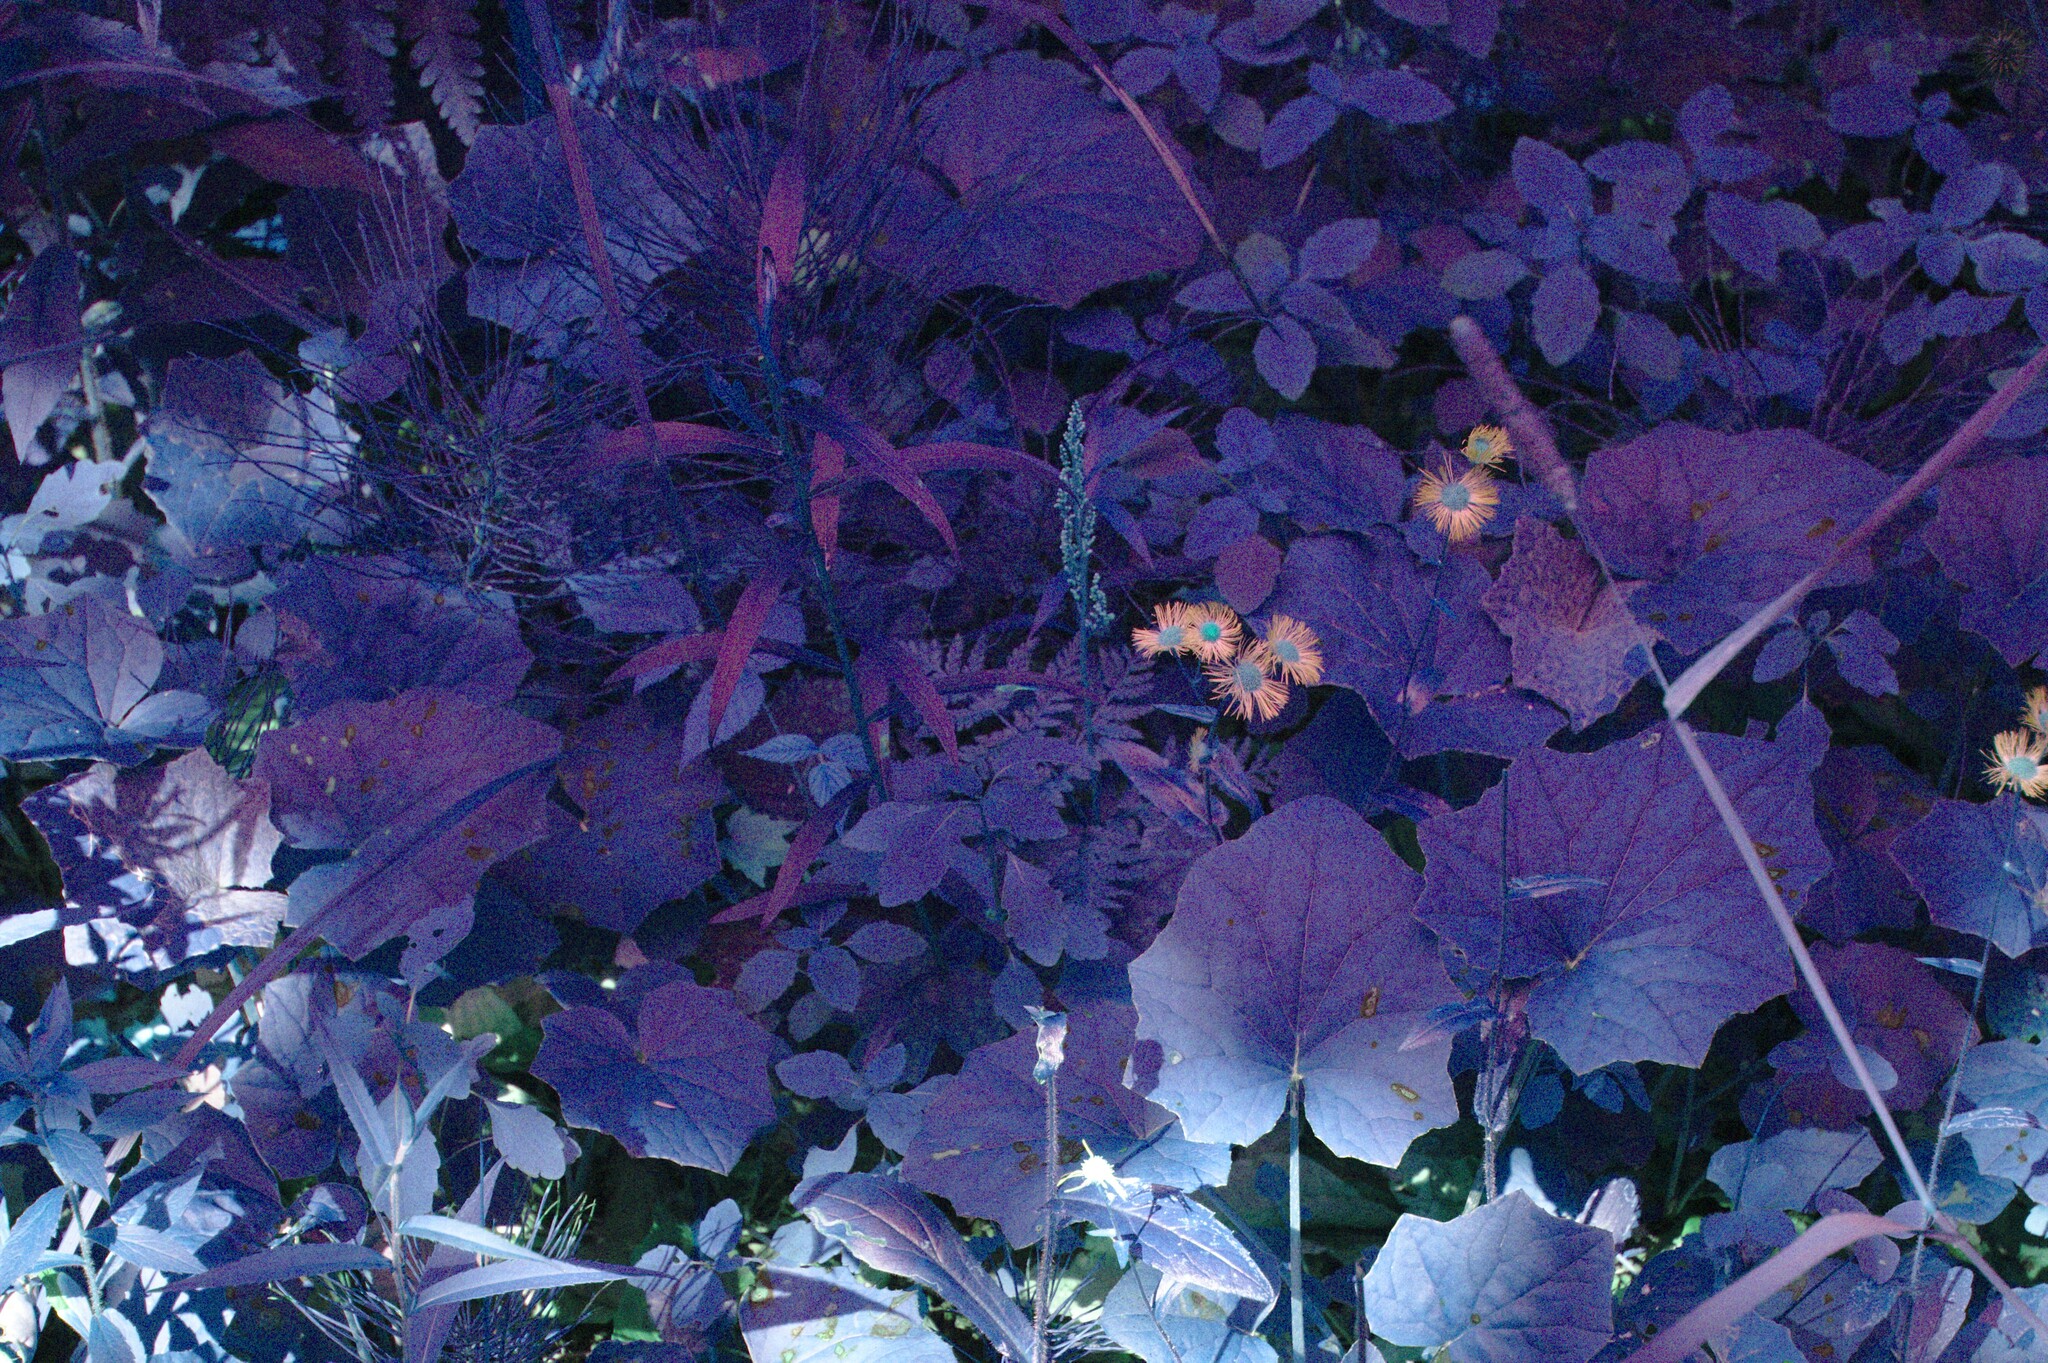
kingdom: Plantae
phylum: Tracheophyta
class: Liliopsida
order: Poales
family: Poaceae
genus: Phleum
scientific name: Phleum pratense
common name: Timothy grass
